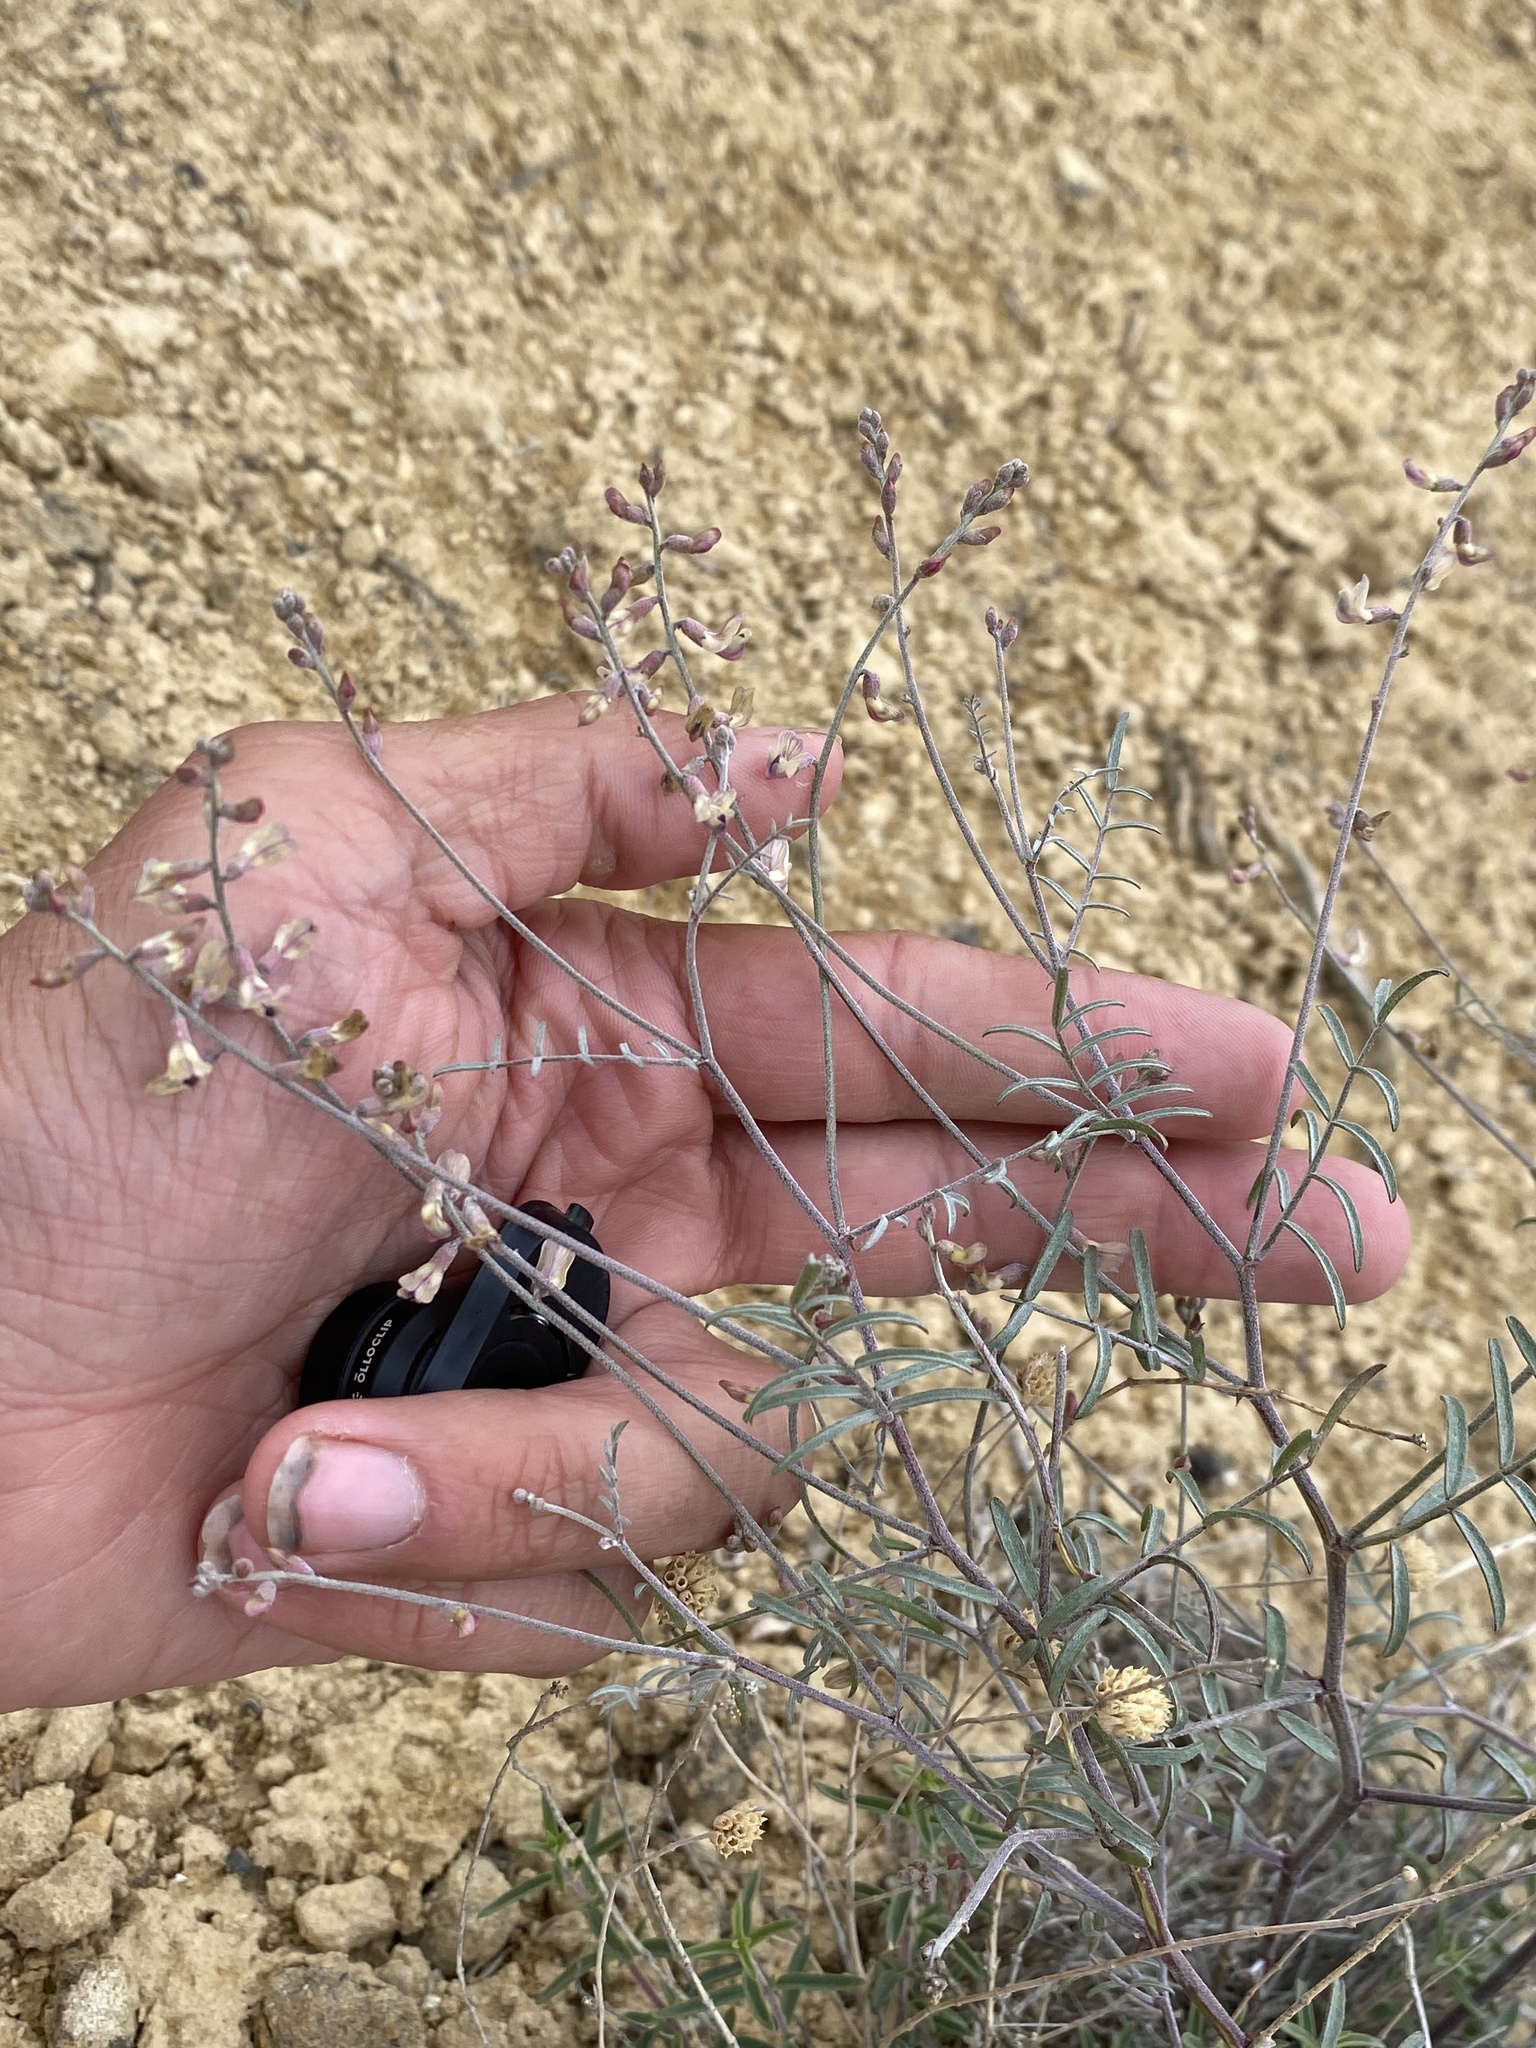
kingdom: Plantae
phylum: Tracheophyta
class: Magnoliopsida
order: Fabales
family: Fabaceae
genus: Astragalus
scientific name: Astragalus solitarius
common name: Lonesome milk-vetch
